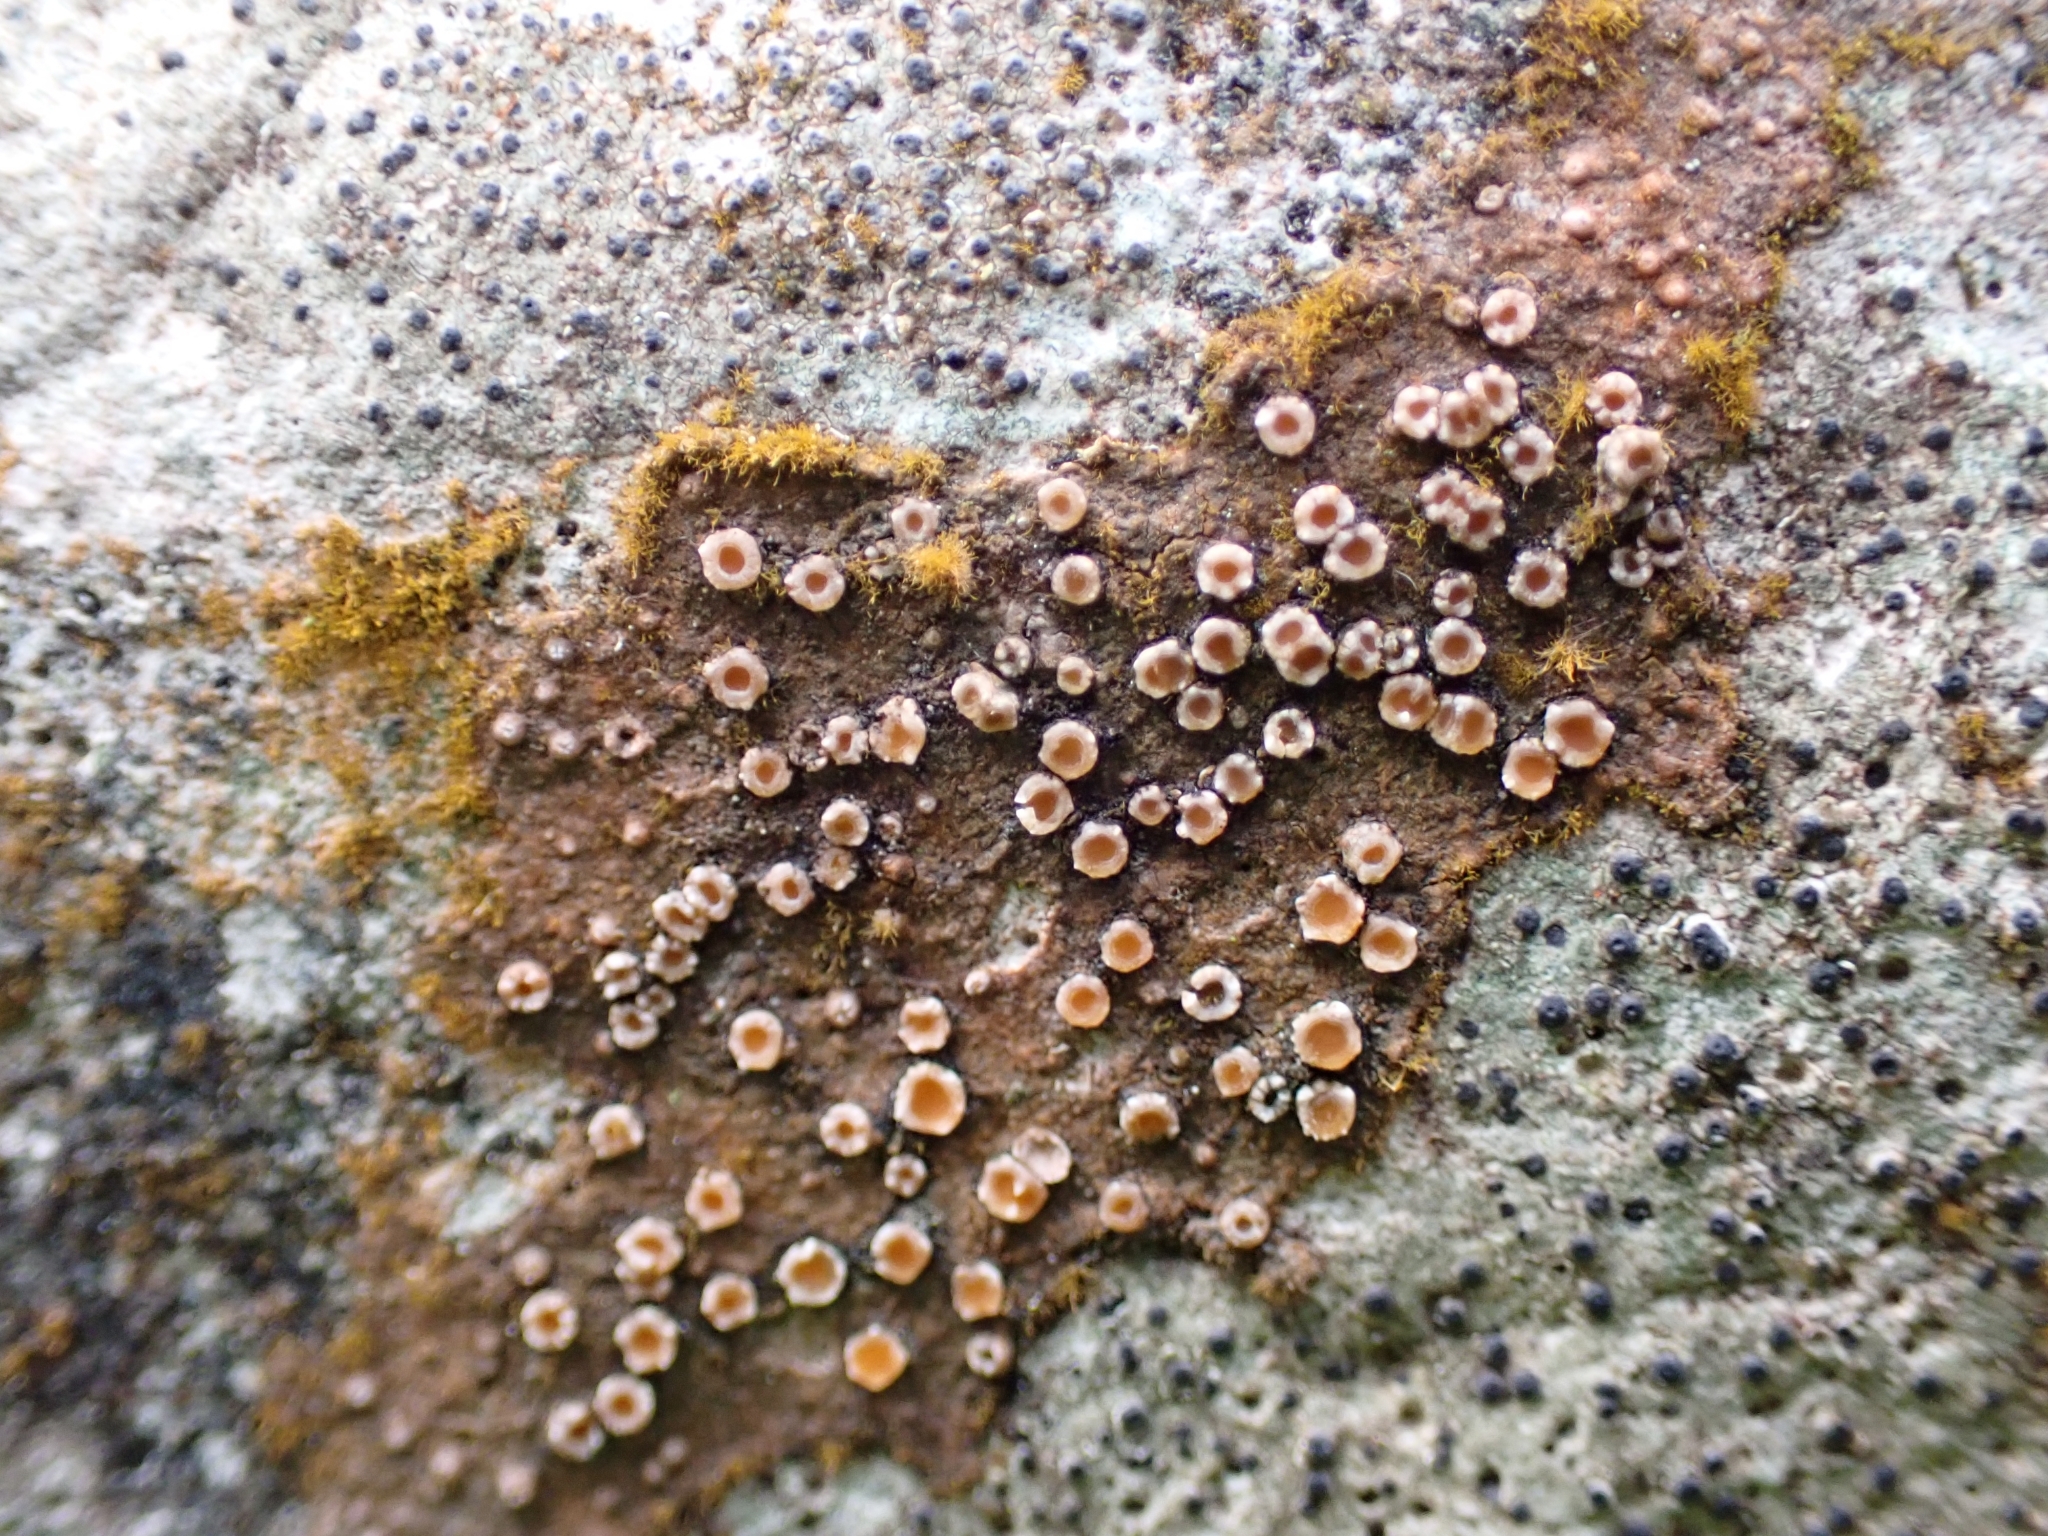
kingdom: Fungi
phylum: Ascomycota
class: Lecanoromycetes
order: Gyalectales
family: Gyalectaceae
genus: Gyalecta
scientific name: Gyalecta jenensis
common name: Rock dimple lichen
